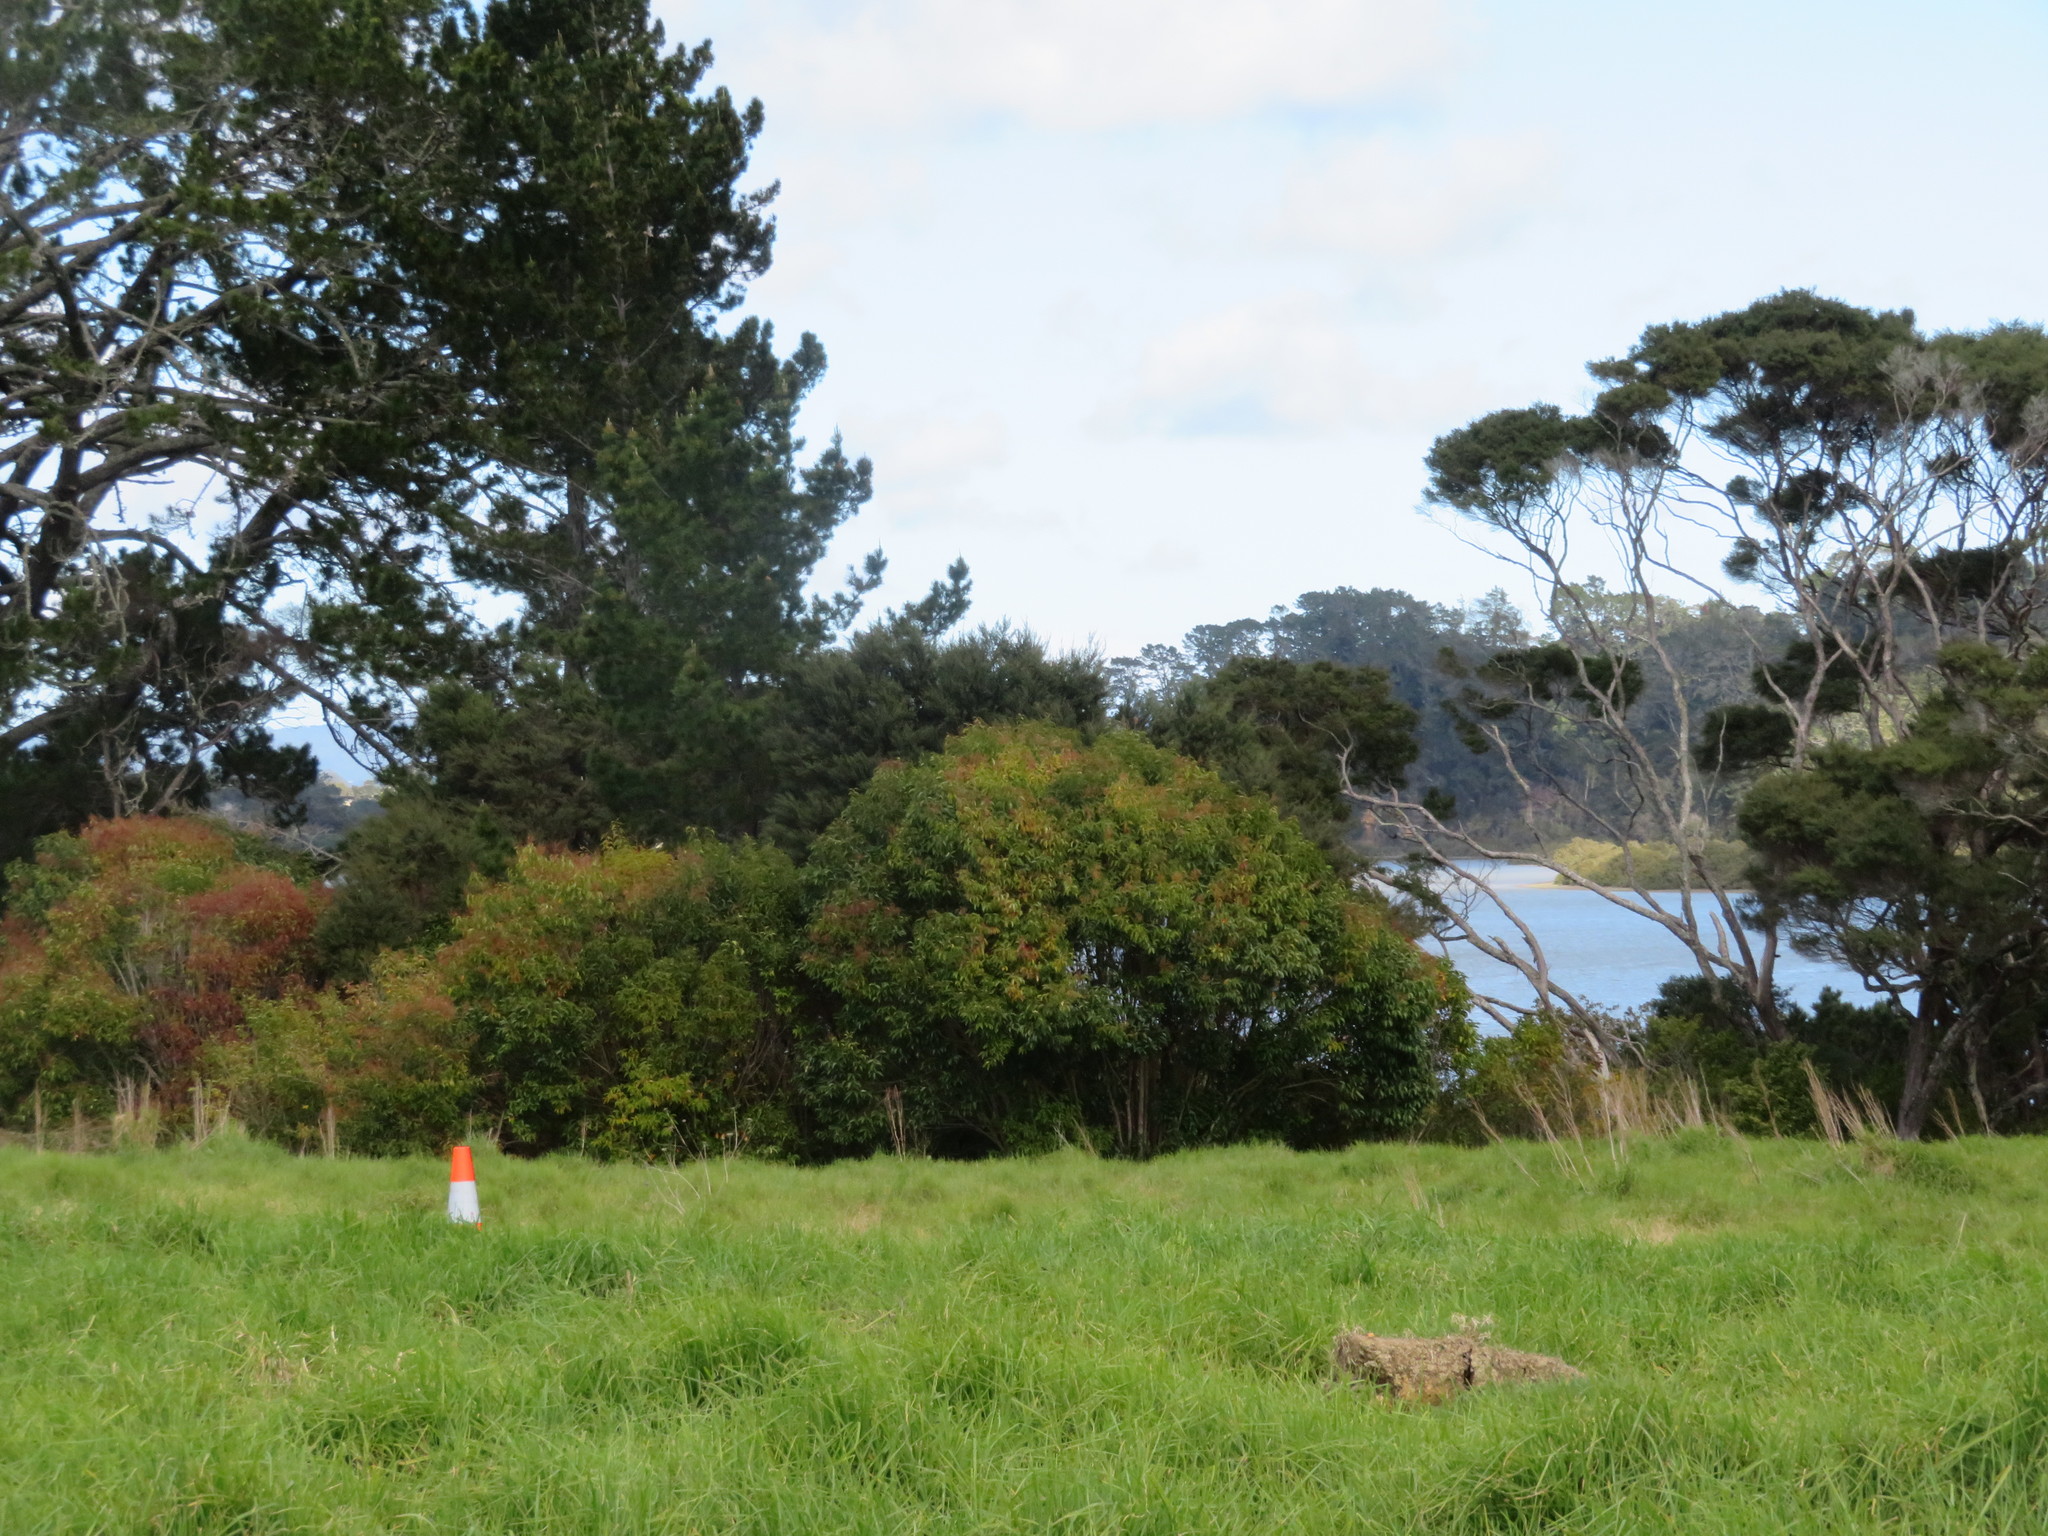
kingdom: Animalia
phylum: Chordata
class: Aves
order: Gruiformes
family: Rallidae
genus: Porphyrio
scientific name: Porphyrio melanotus
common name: Australasian swamphen
